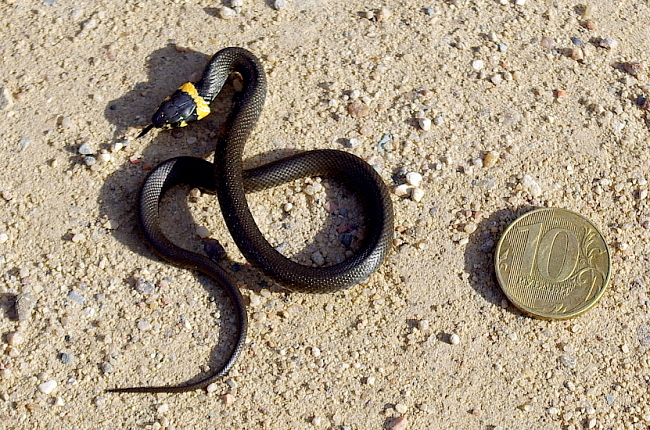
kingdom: Animalia
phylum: Chordata
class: Squamata
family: Colubridae
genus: Natrix
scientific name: Natrix natrix
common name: Grass snake
